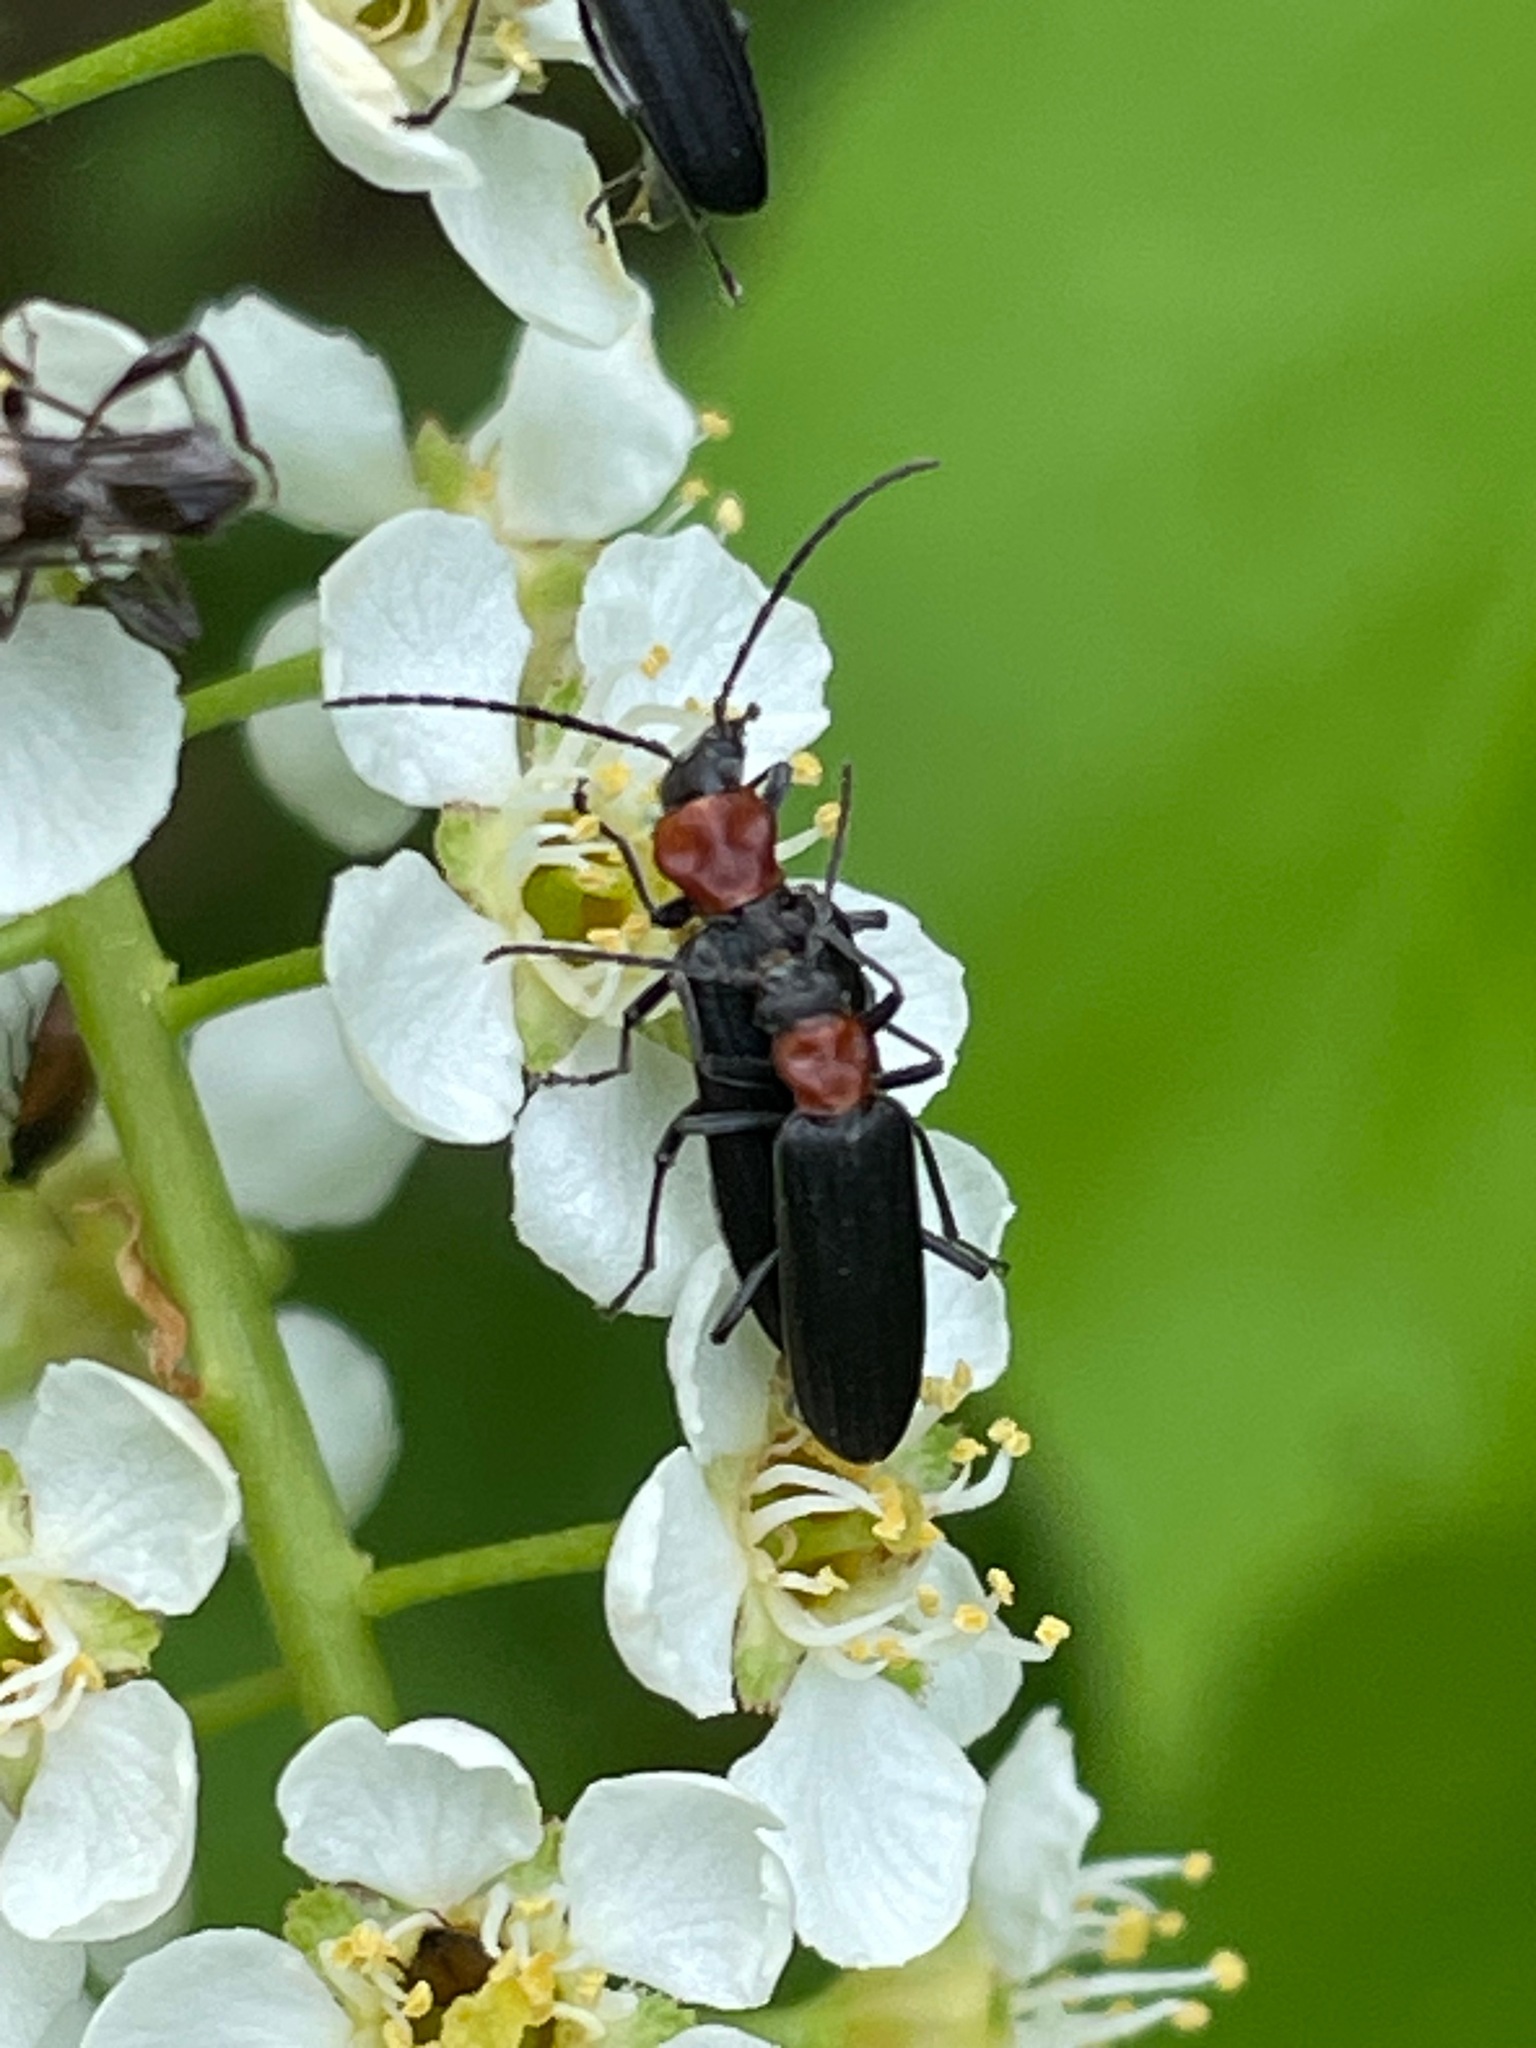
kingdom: Animalia
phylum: Arthropoda
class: Insecta
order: Coleoptera
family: Oedemeridae
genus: Ischnomera
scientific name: Ischnomera
